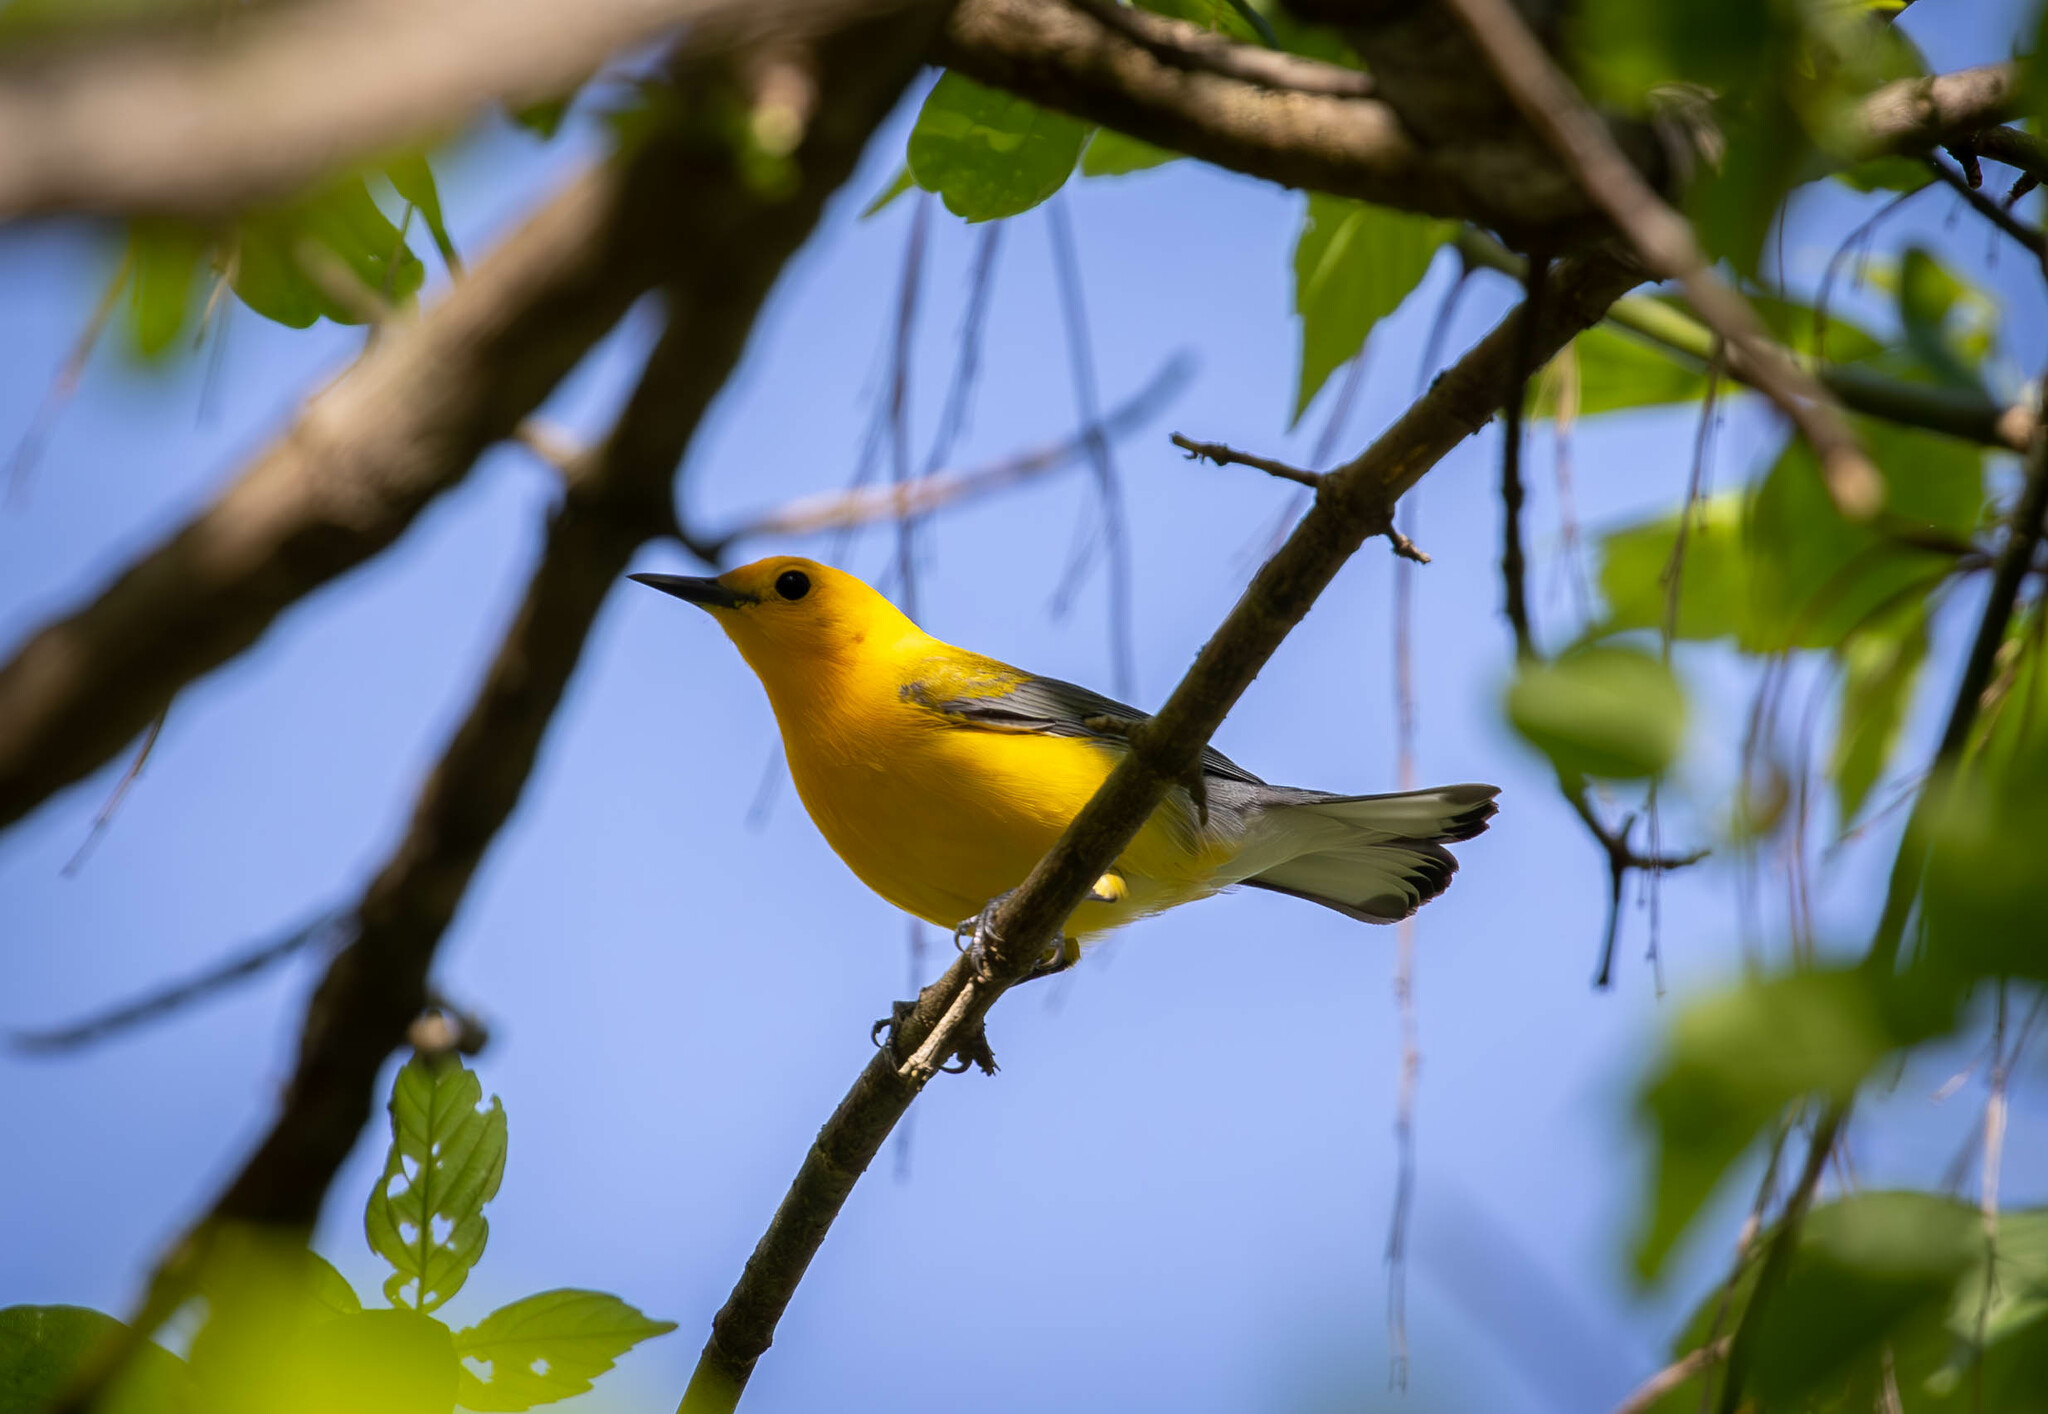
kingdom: Animalia
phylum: Chordata
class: Aves
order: Passeriformes
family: Parulidae
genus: Protonotaria
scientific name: Protonotaria citrea
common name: Prothonotary warbler
